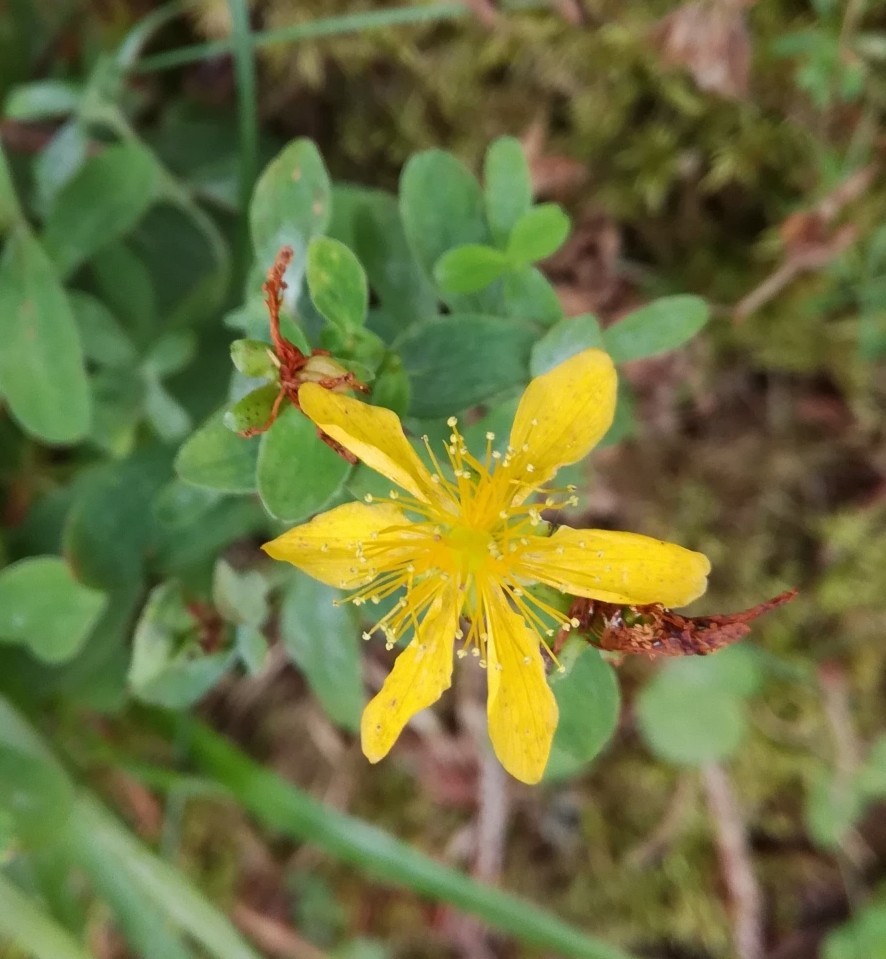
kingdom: Plantae
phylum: Tracheophyta
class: Magnoliopsida
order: Malpighiales
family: Hypericaceae
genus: Hypericum
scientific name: Hypericum maculatum
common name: Imperforate st. john's-wort
